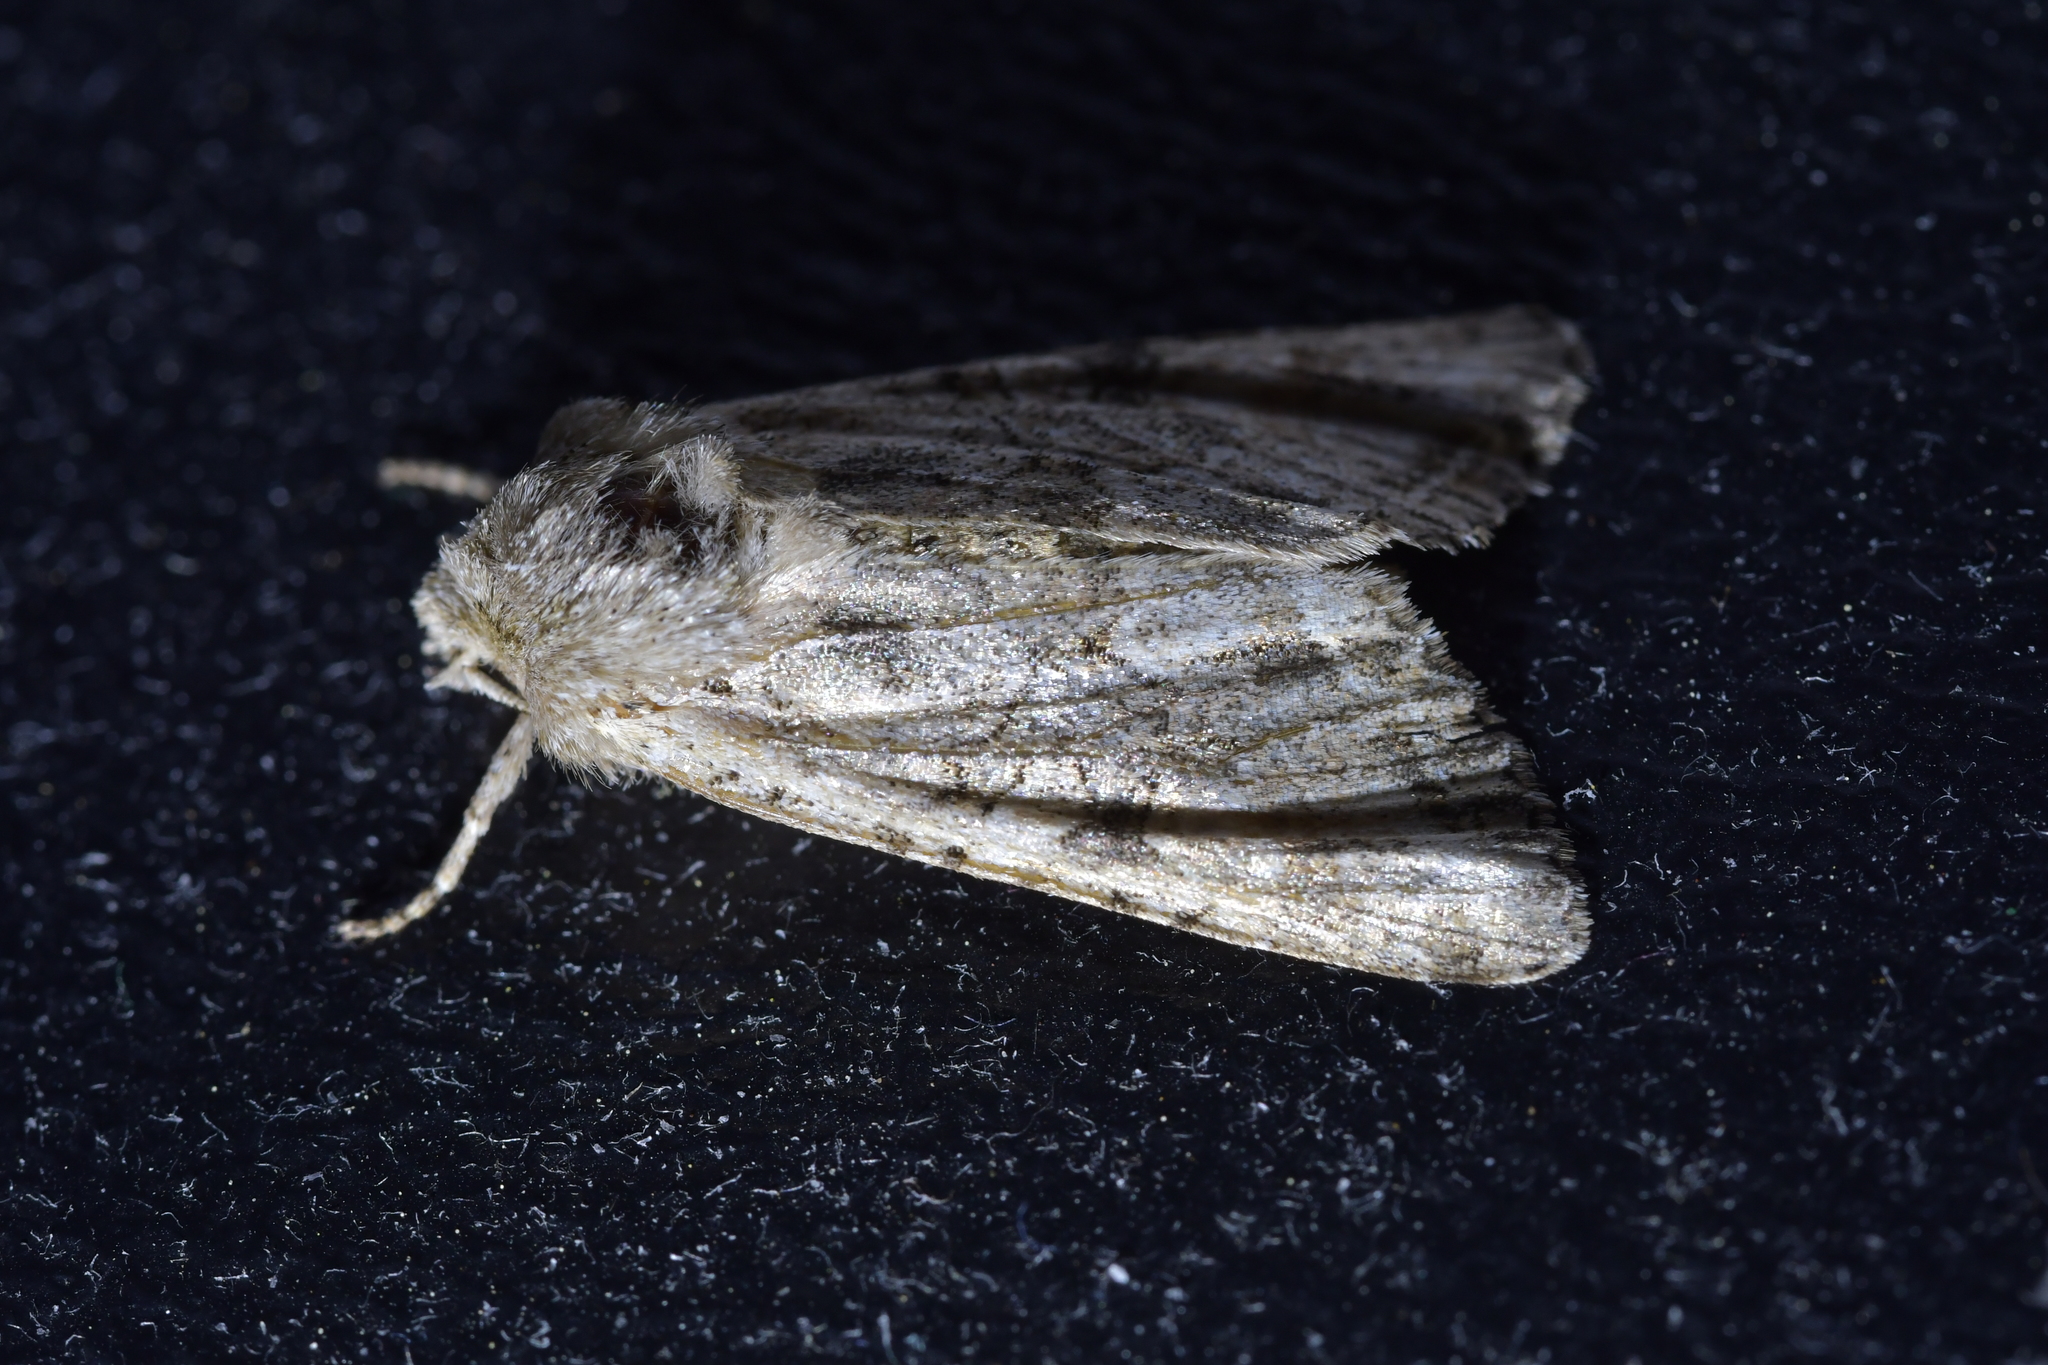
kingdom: Animalia
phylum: Arthropoda
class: Insecta
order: Lepidoptera
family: Noctuidae
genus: Ichneutica
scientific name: Ichneutica mutans
